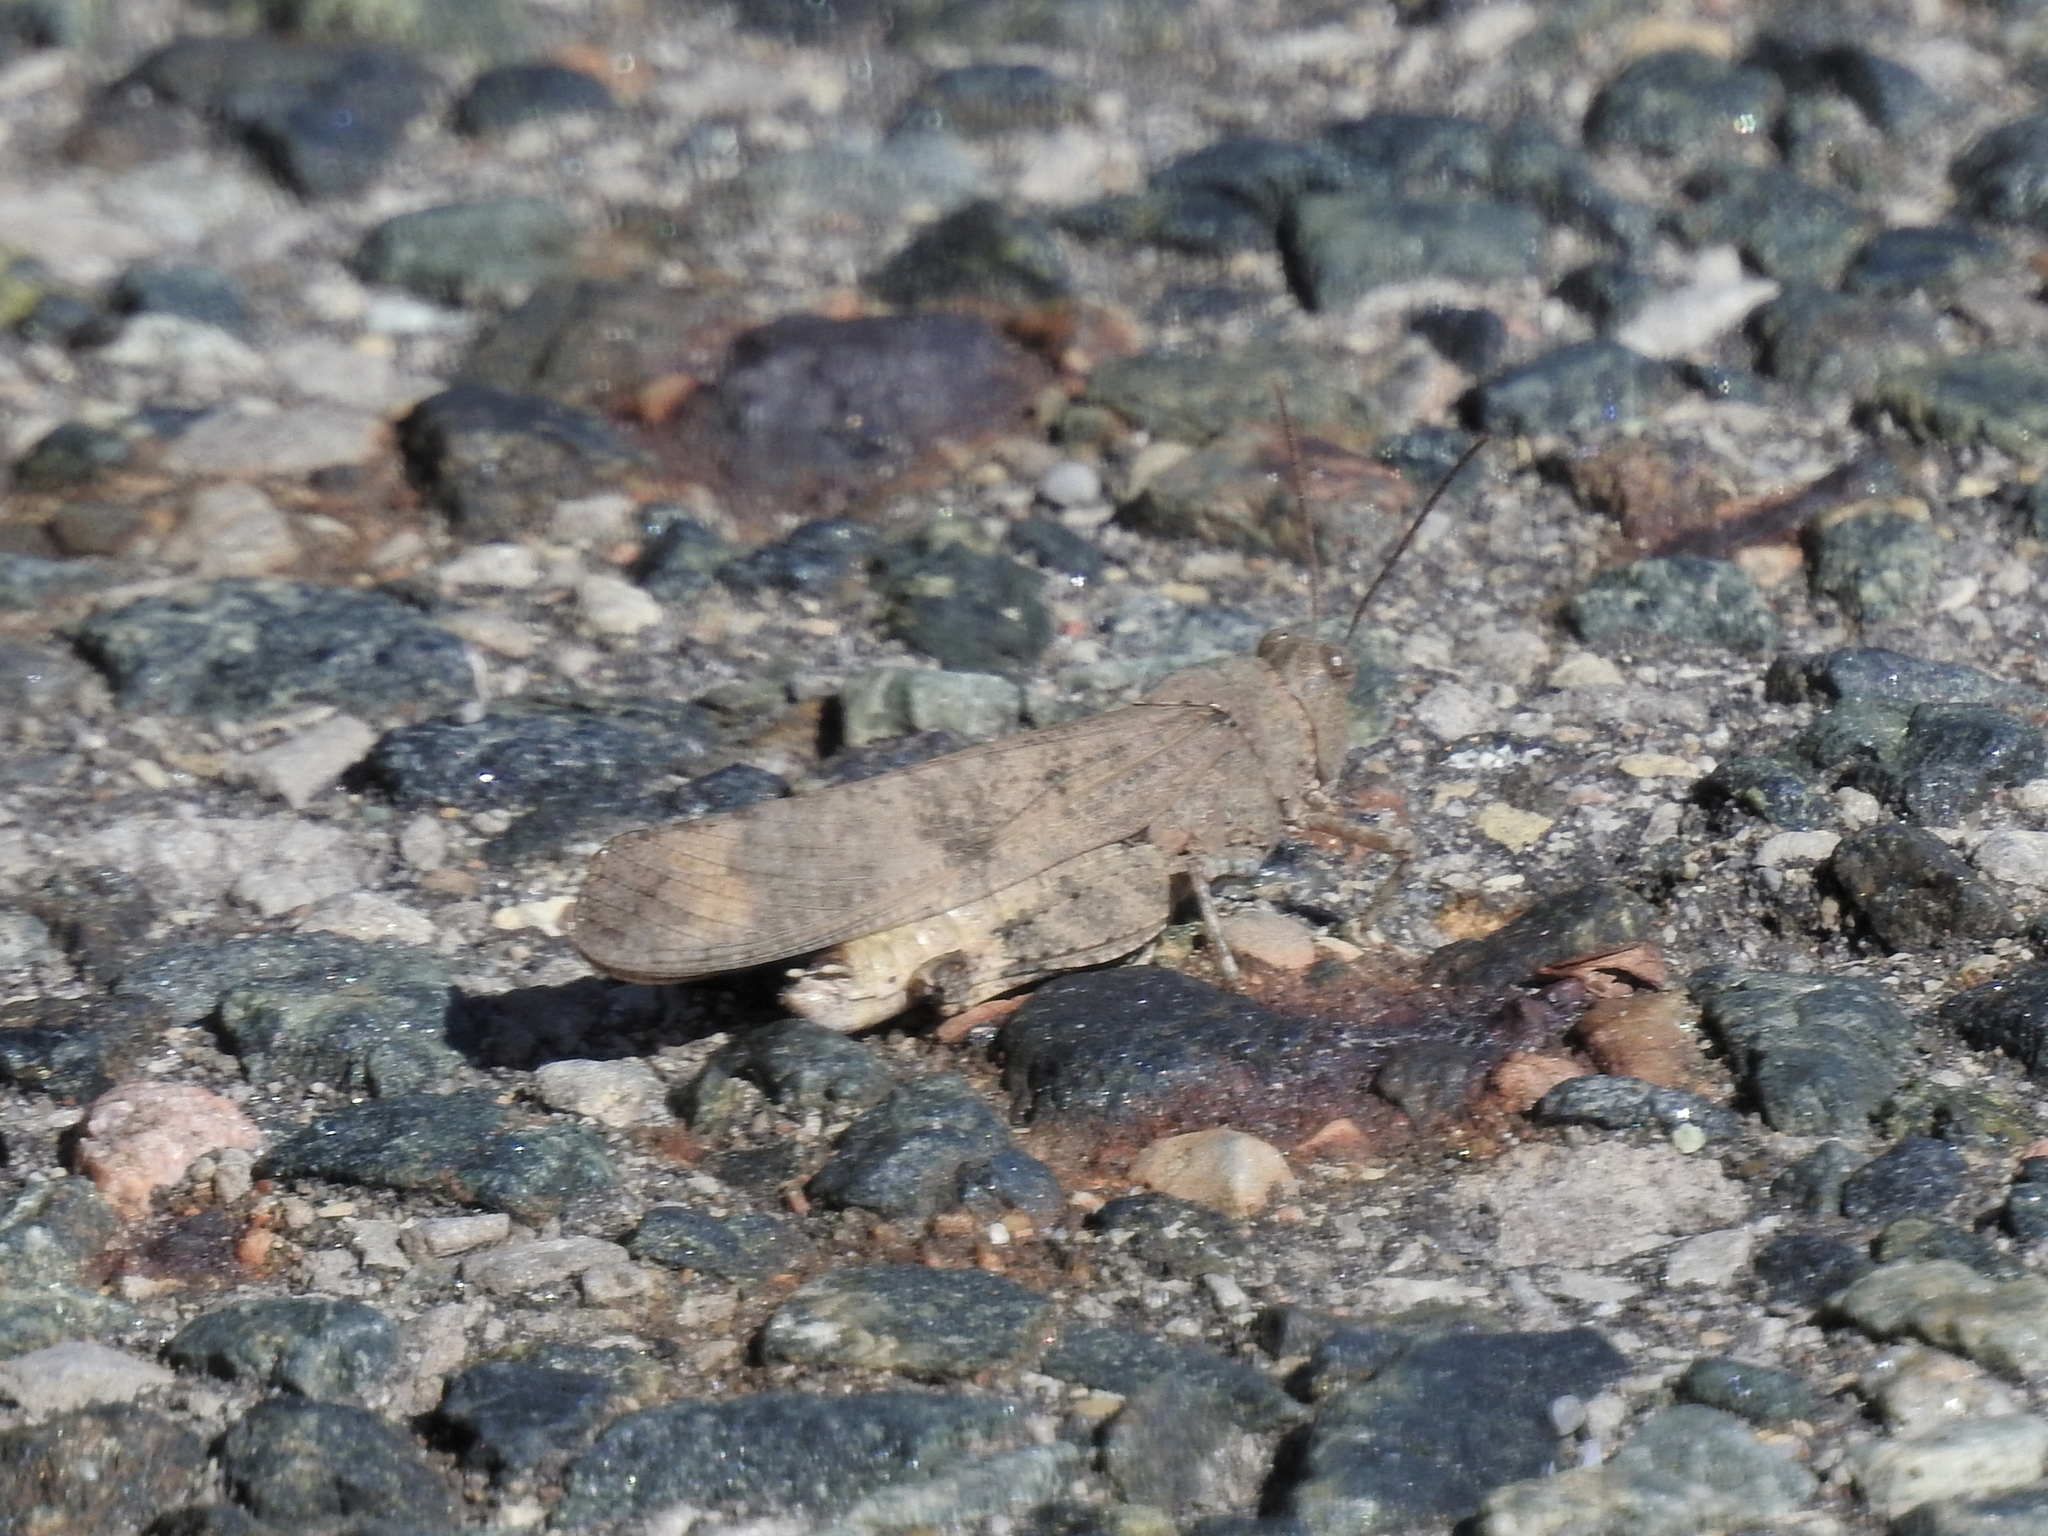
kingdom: Animalia
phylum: Arthropoda
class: Insecta
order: Orthoptera
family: Acrididae
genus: Dissosteira
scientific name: Dissosteira carolina
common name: Carolina grasshopper
